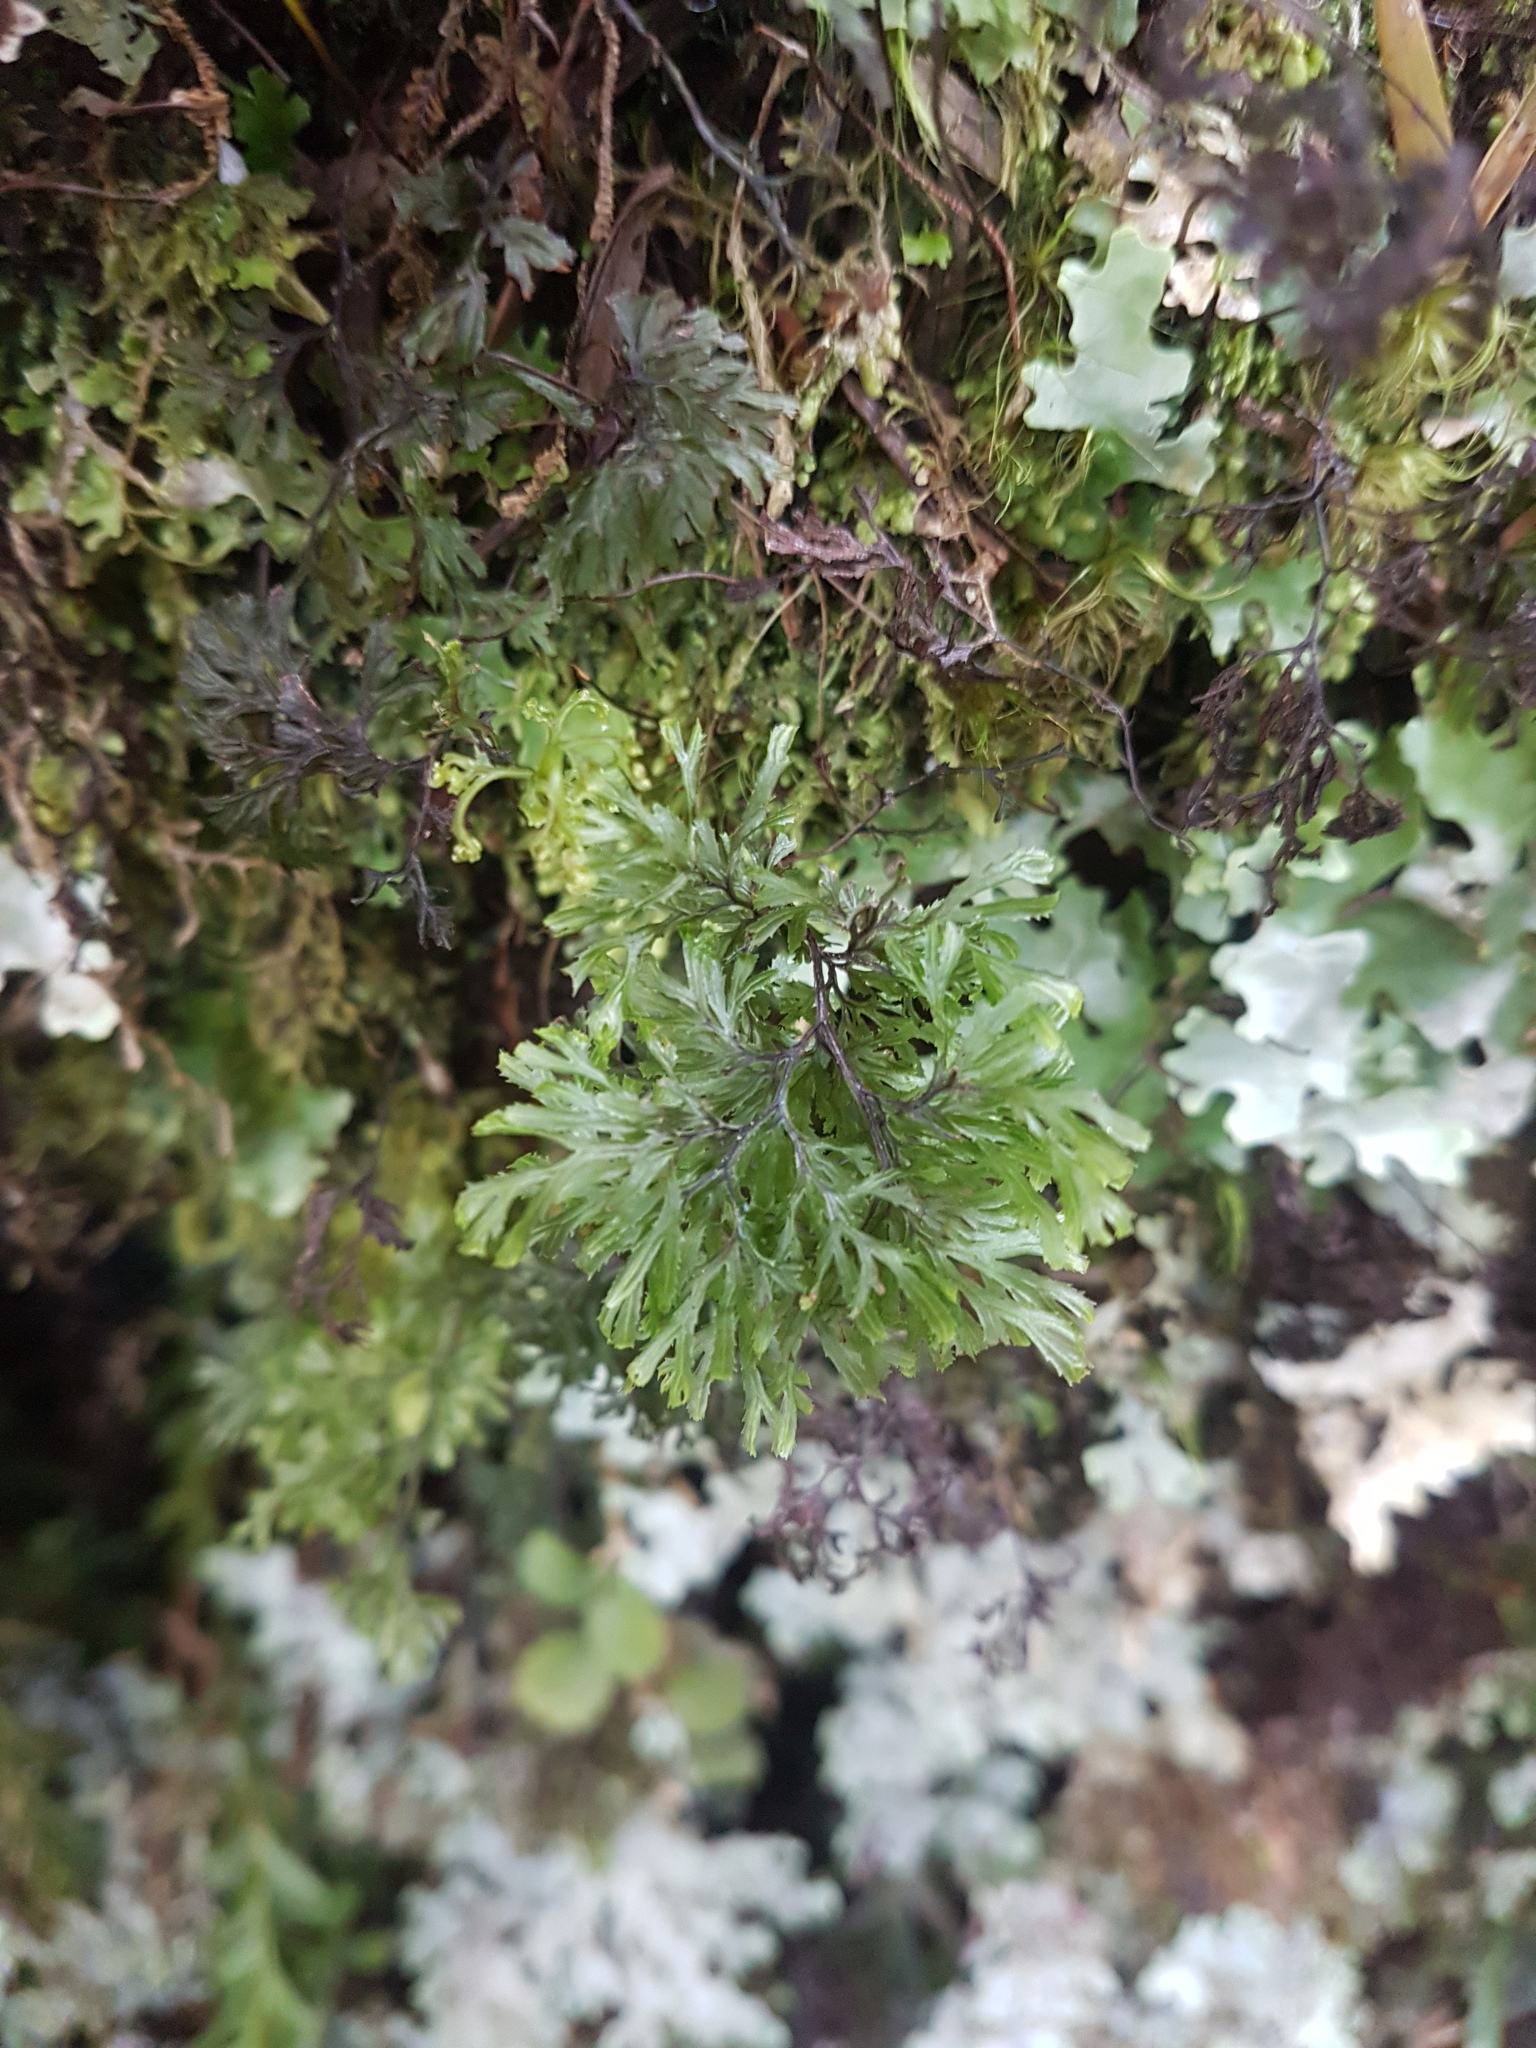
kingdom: Plantae
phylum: Tracheophyta
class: Polypodiopsida
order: Hymenophyllales
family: Hymenophyllaceae
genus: Hymenophyllum
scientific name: Hymenophyllum multifidum
